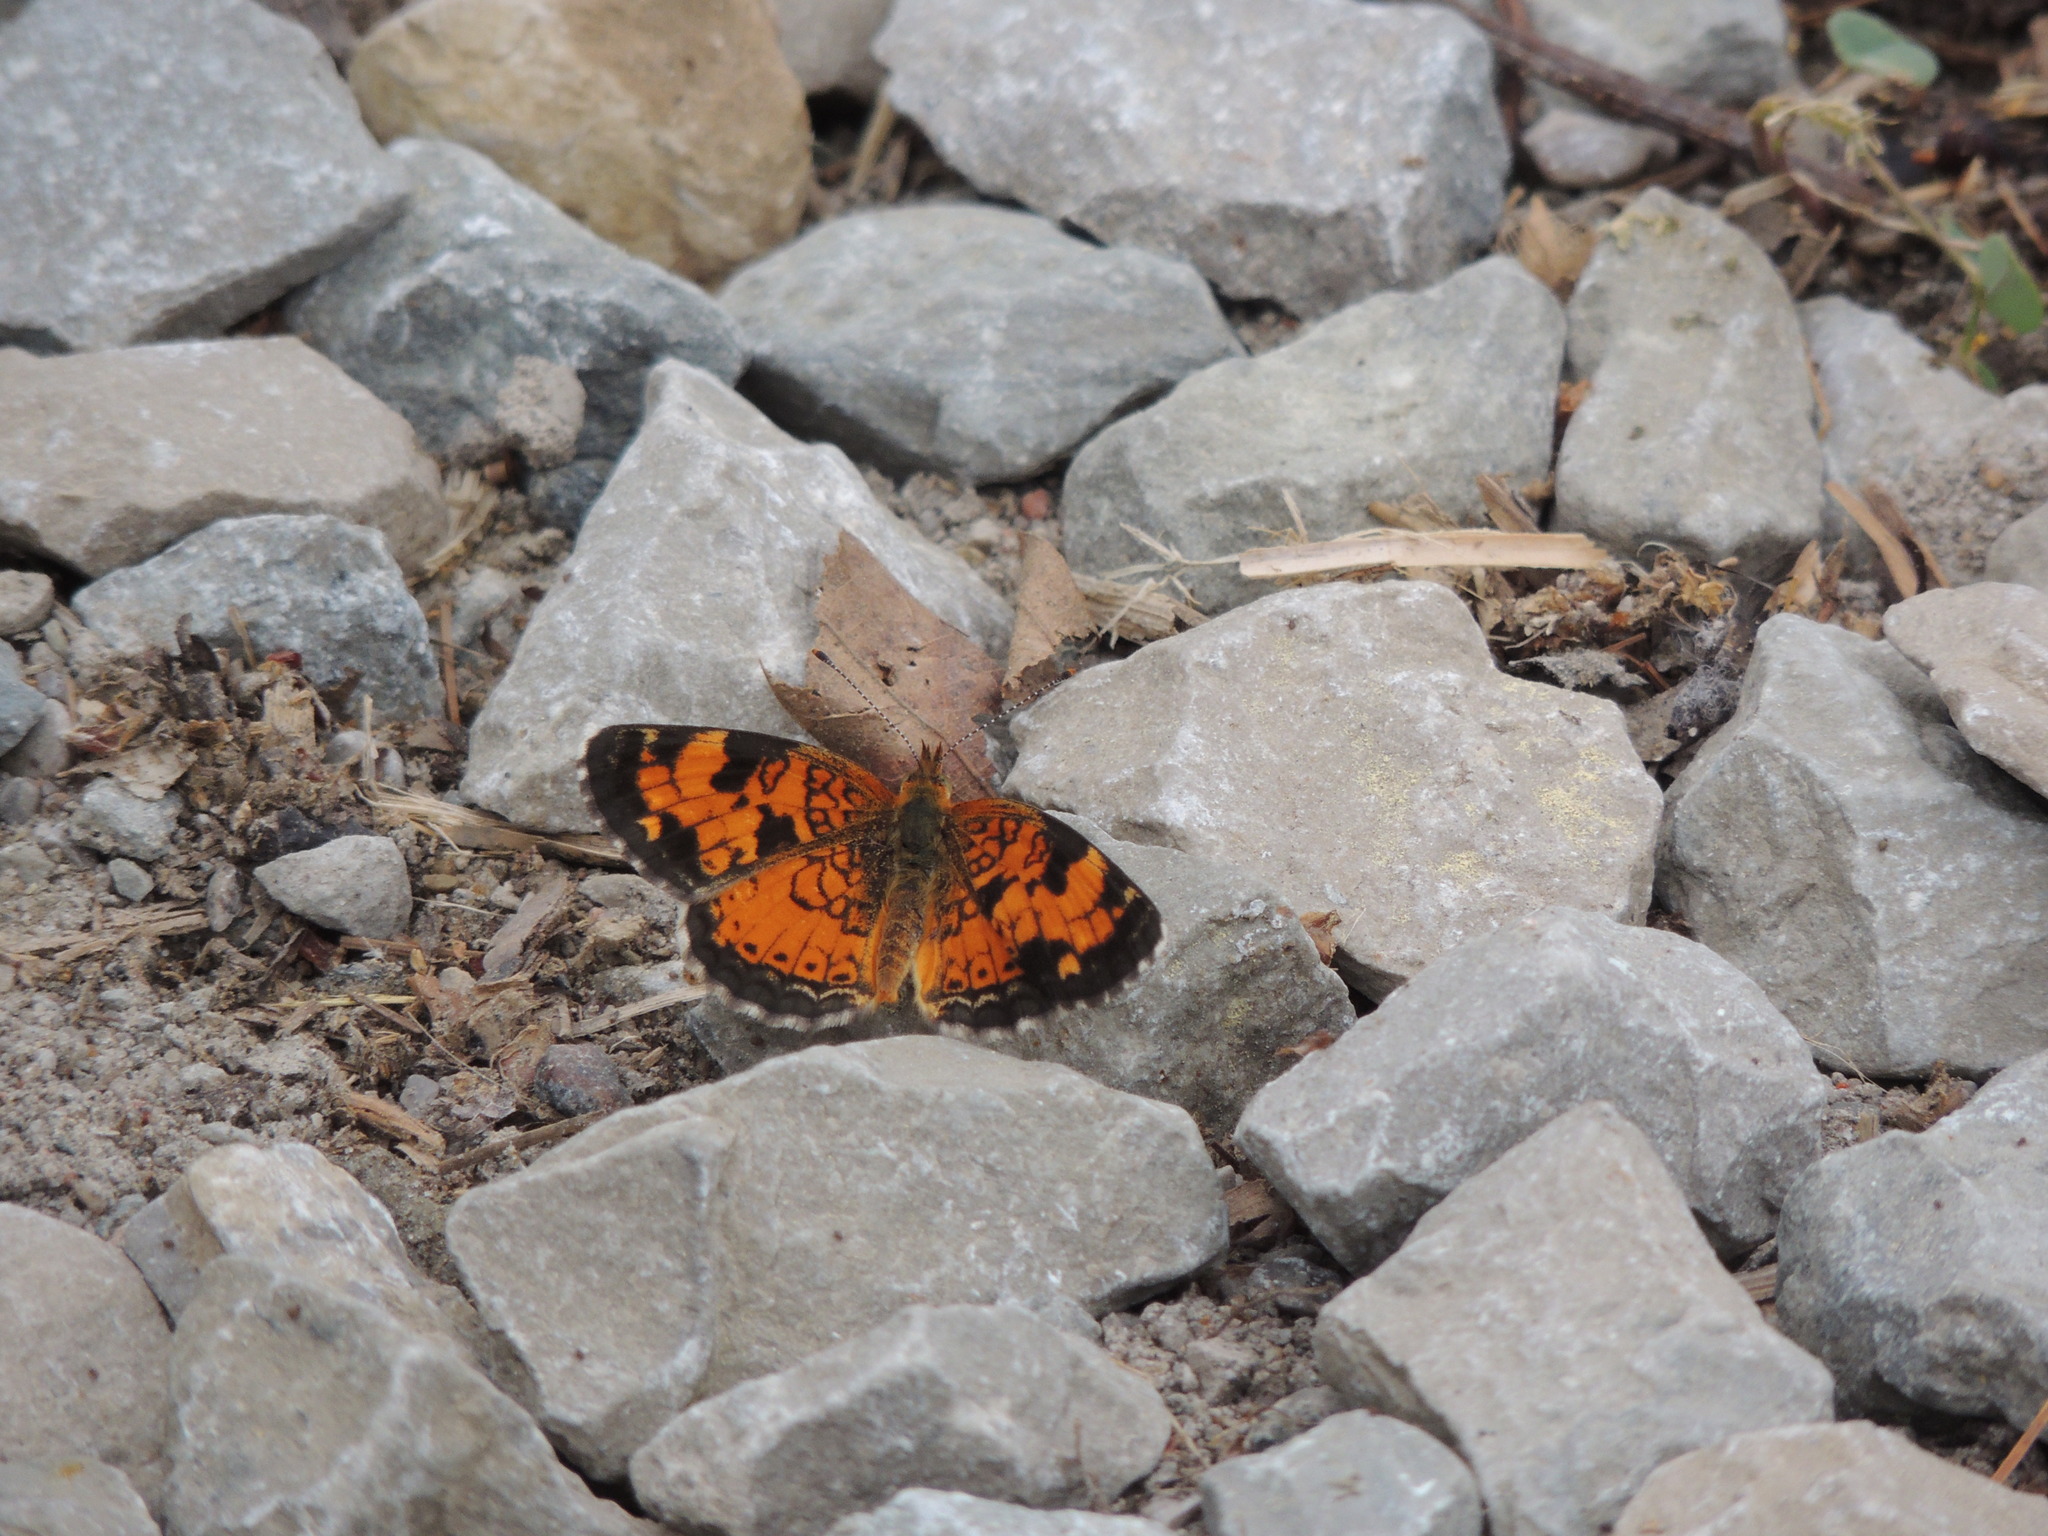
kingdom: Animalia
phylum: Arthropoda
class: Insecta
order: Lepidoptera
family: Nymphalidae
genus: Phyciodes
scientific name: Phyciodes tharos
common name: Pearl crescent
